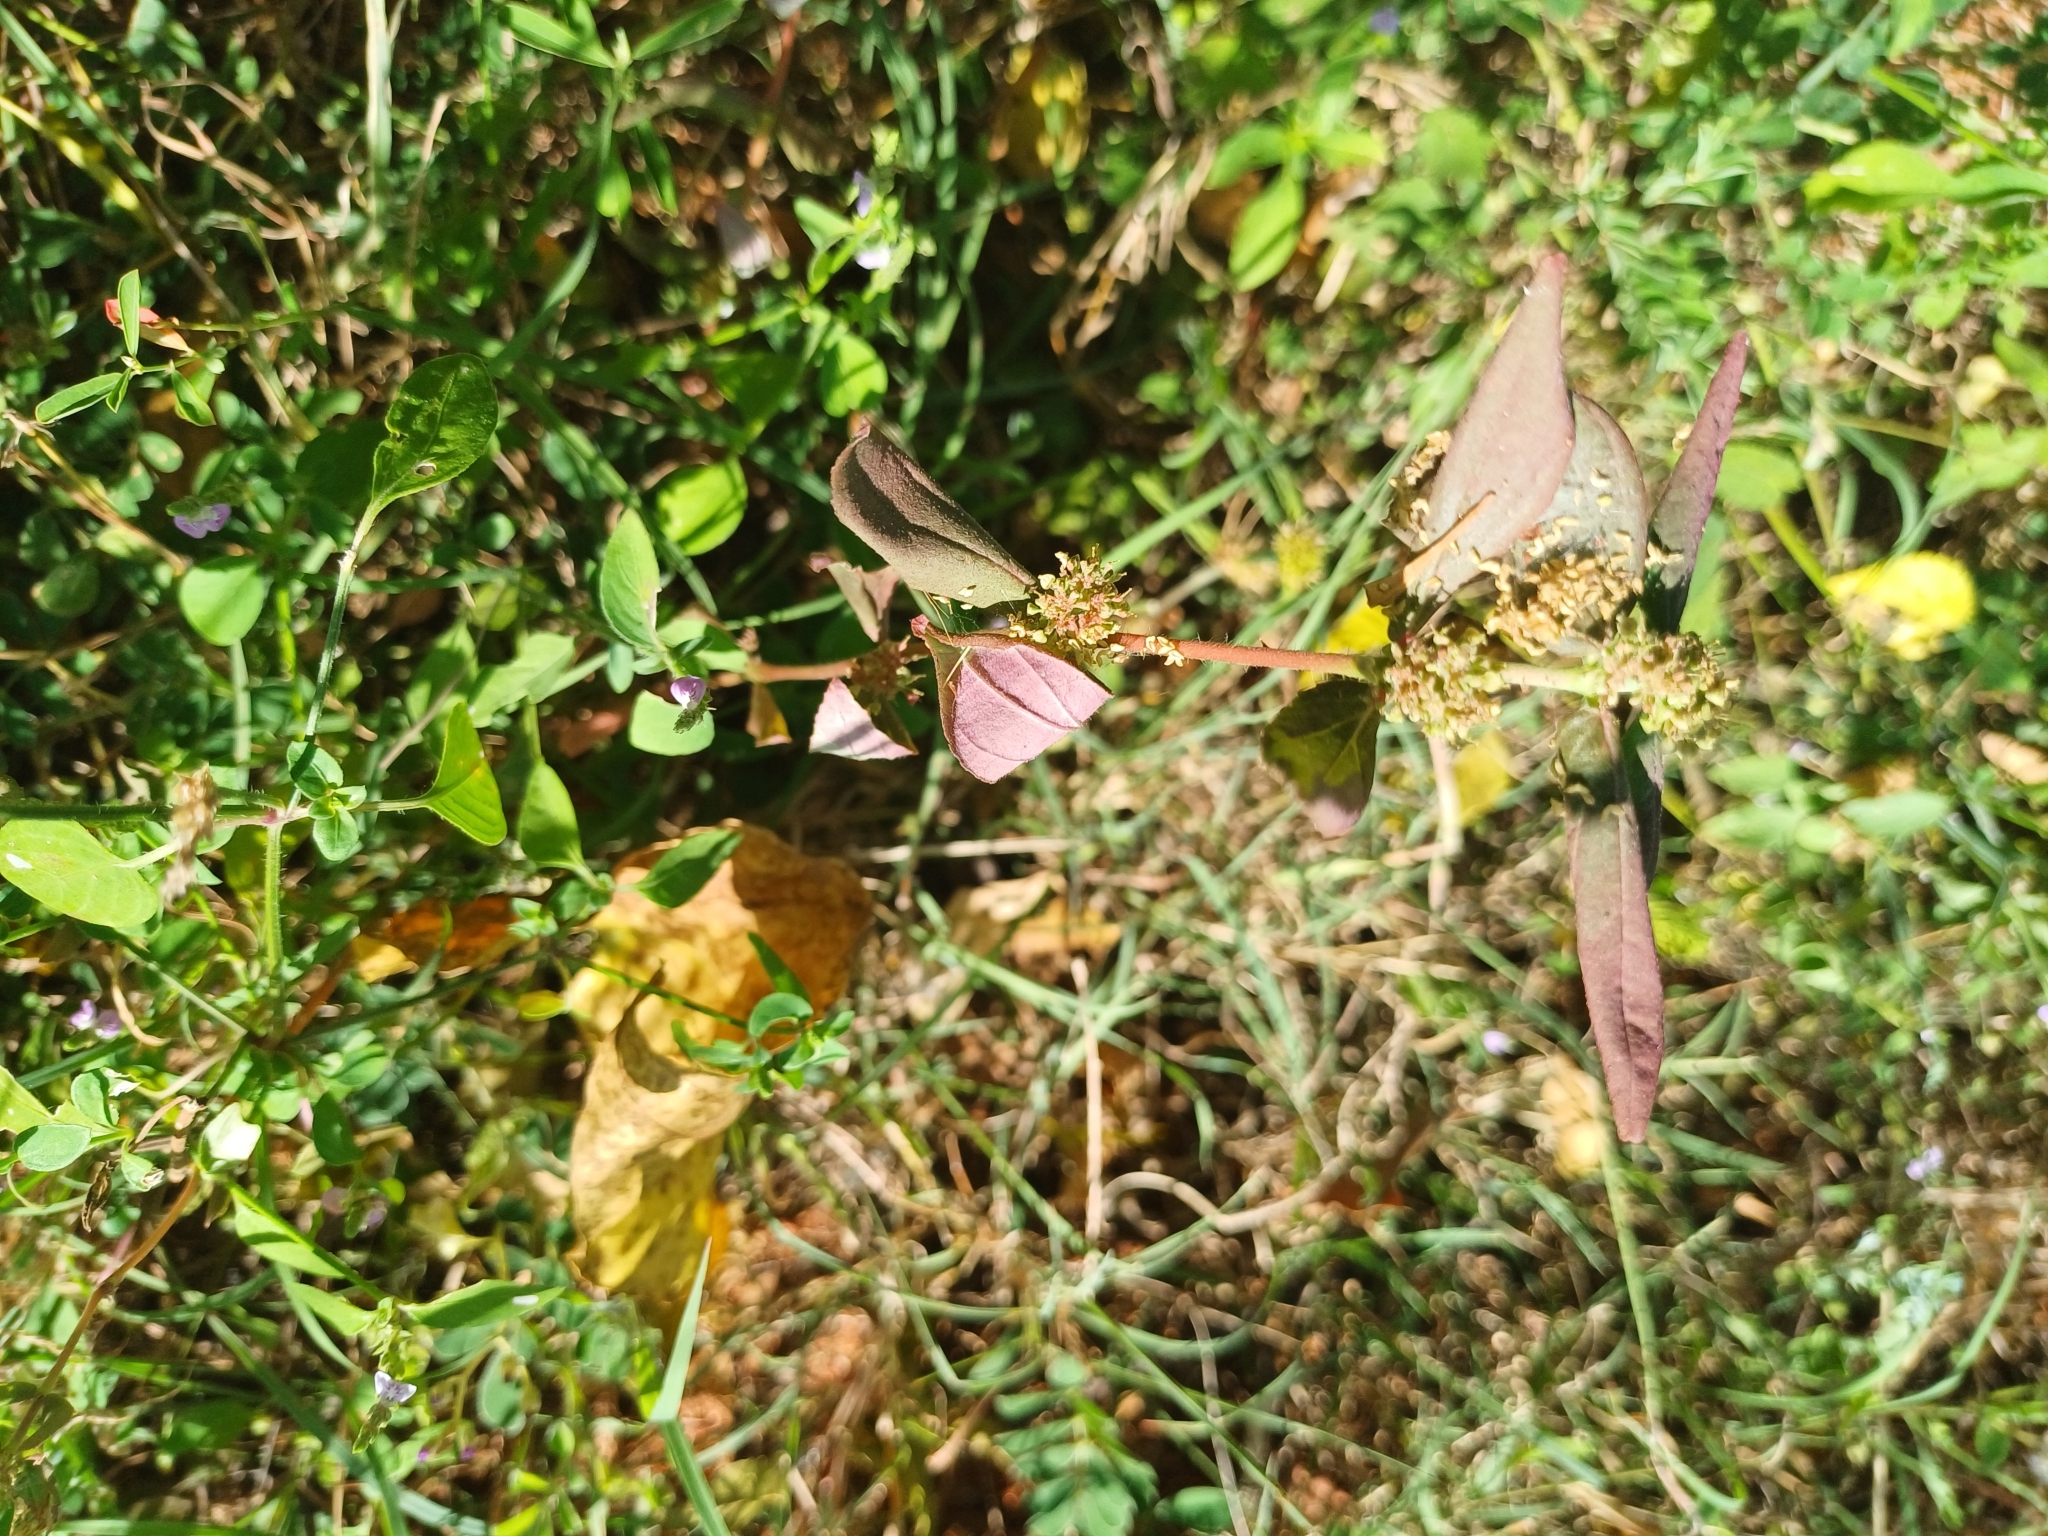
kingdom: Plantae
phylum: Tracheophyta
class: Magnoliopsida
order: Malpighiales
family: Euphorbiaceae
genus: Euphorbia
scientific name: Euphorbia hirta
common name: Pillpod sandmat
